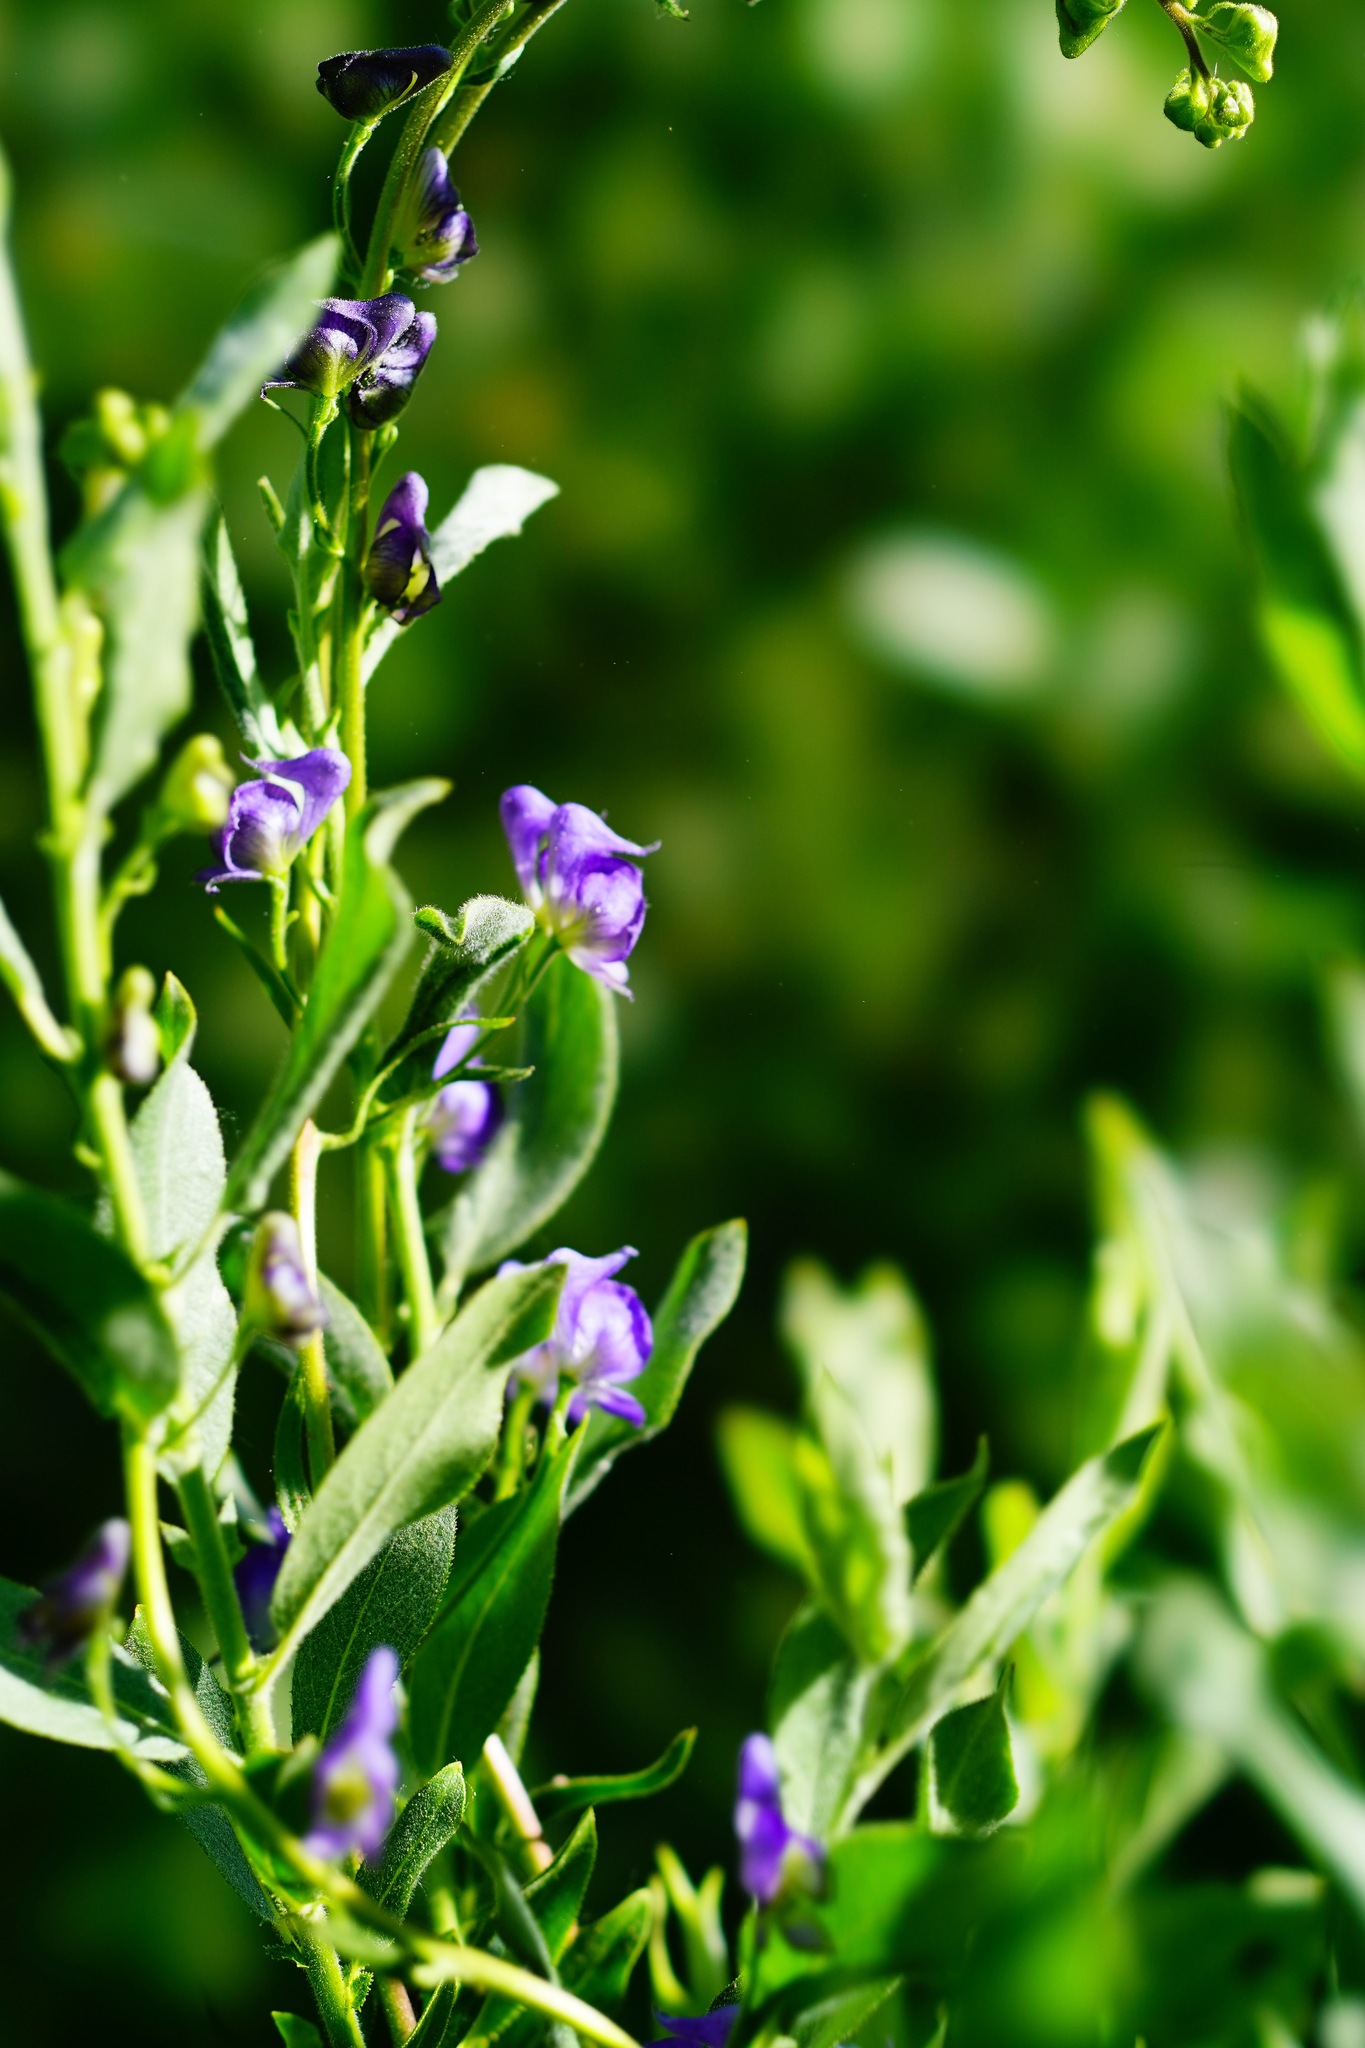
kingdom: Plantae
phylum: Tracheophyta
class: Magnoliopsida
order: Ranunculales
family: Ranunculaceae
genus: Aconitum
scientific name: Aconitum columbianum
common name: Columbia aconite
